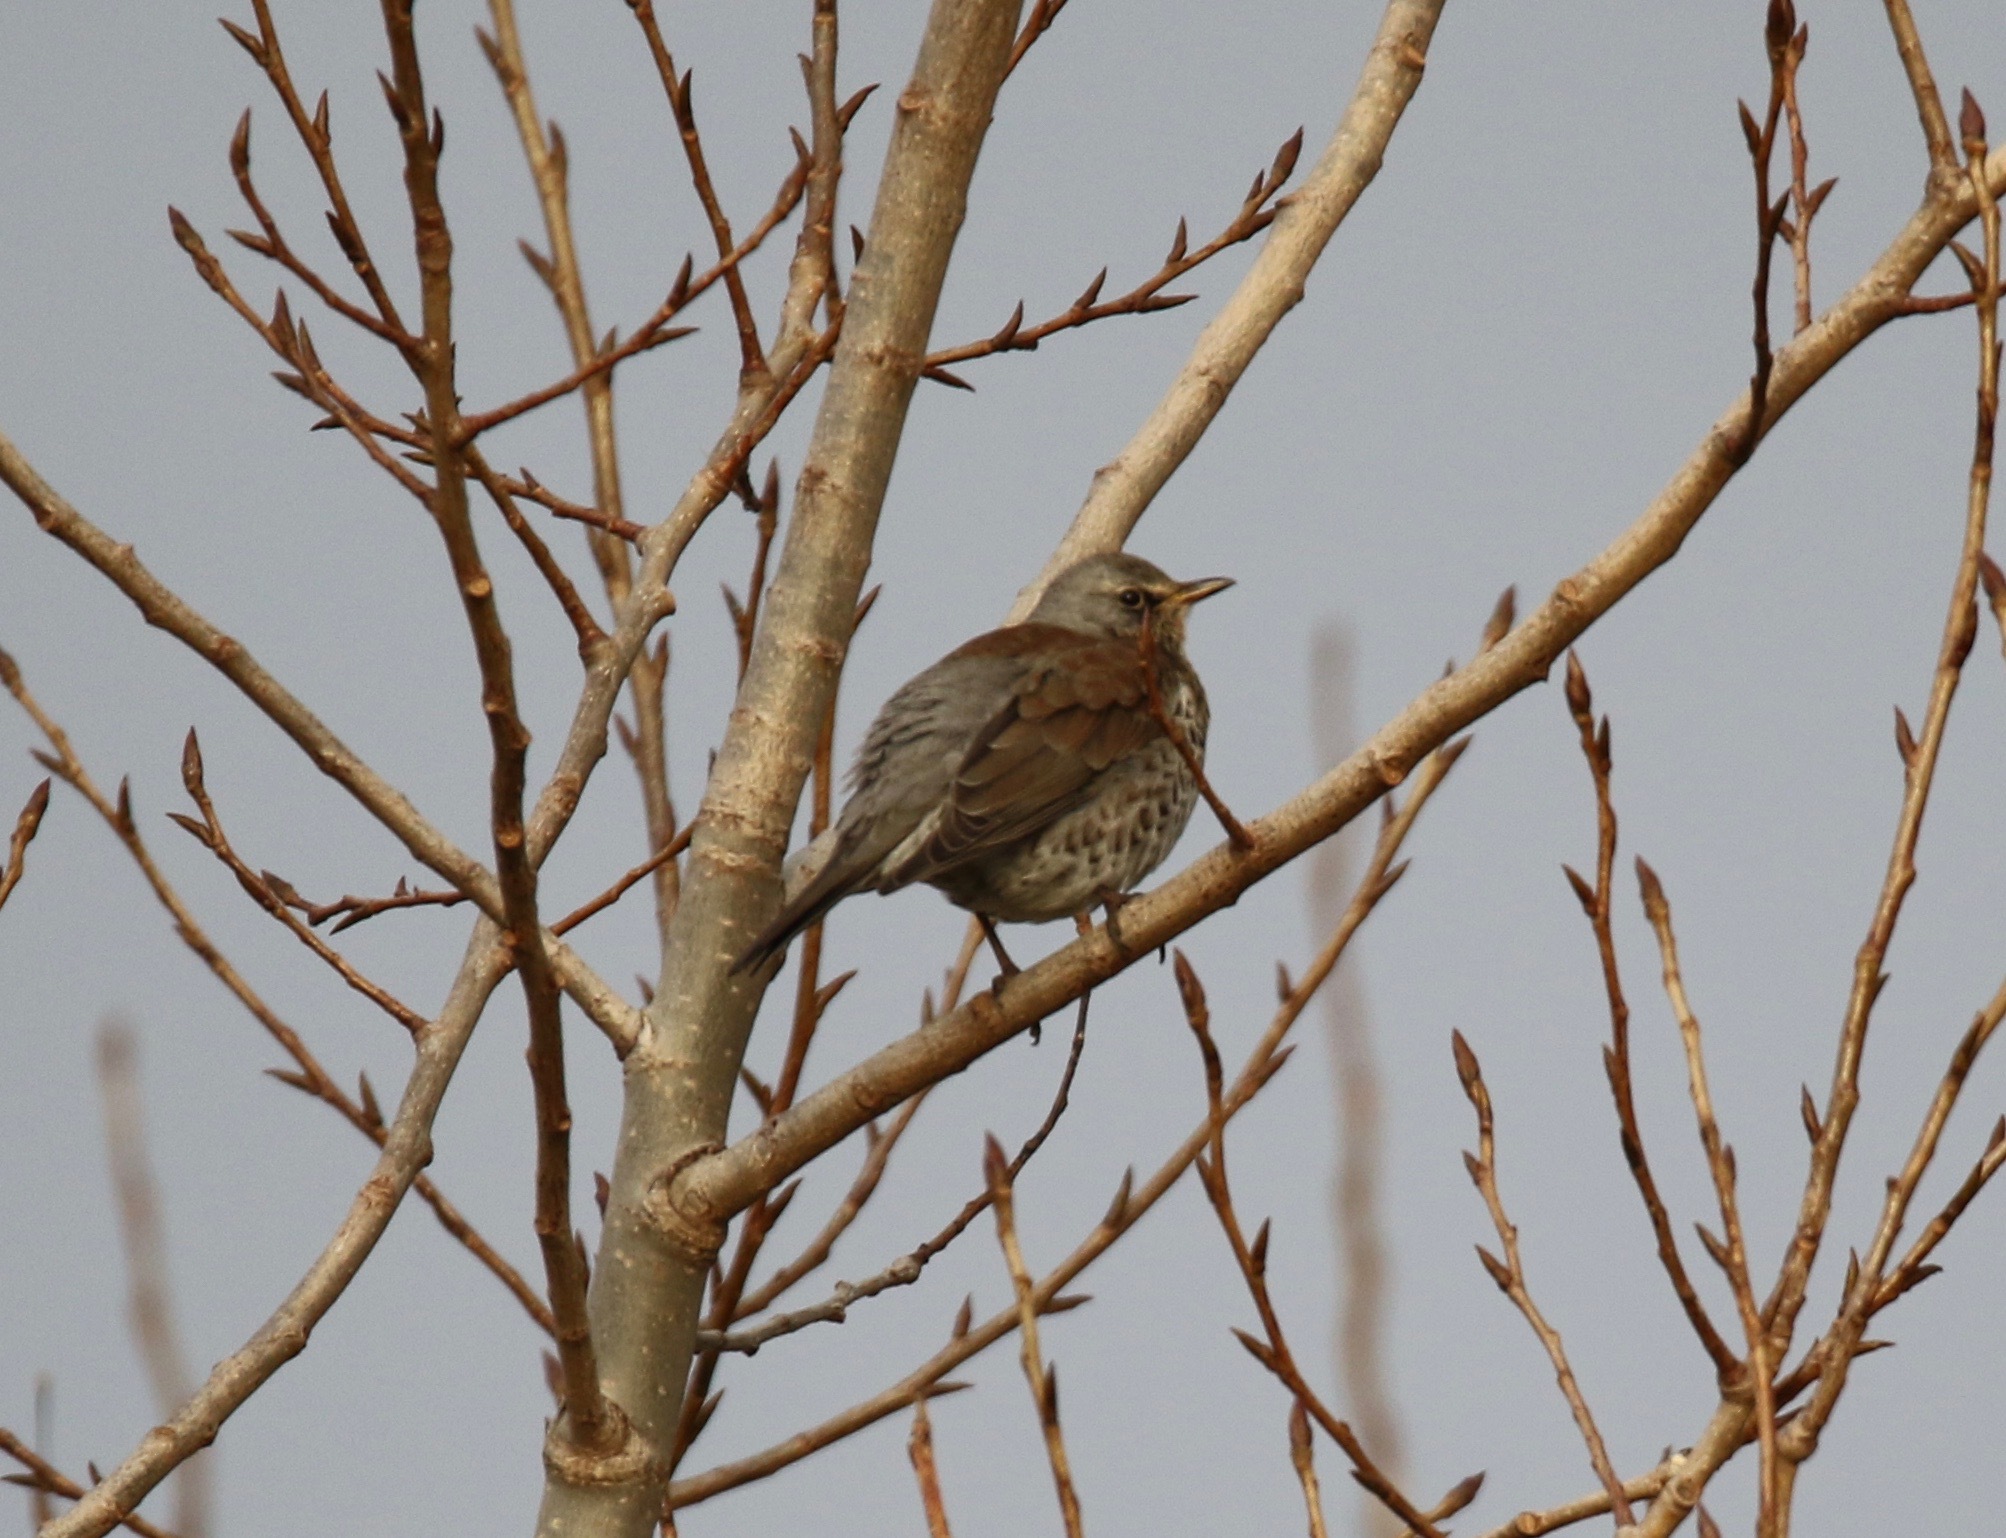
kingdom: Animalia
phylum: Chordata
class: Aves
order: Passeriformes
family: Turdidae
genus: Turdus
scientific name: Turdus pilaris
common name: Fieldfare
